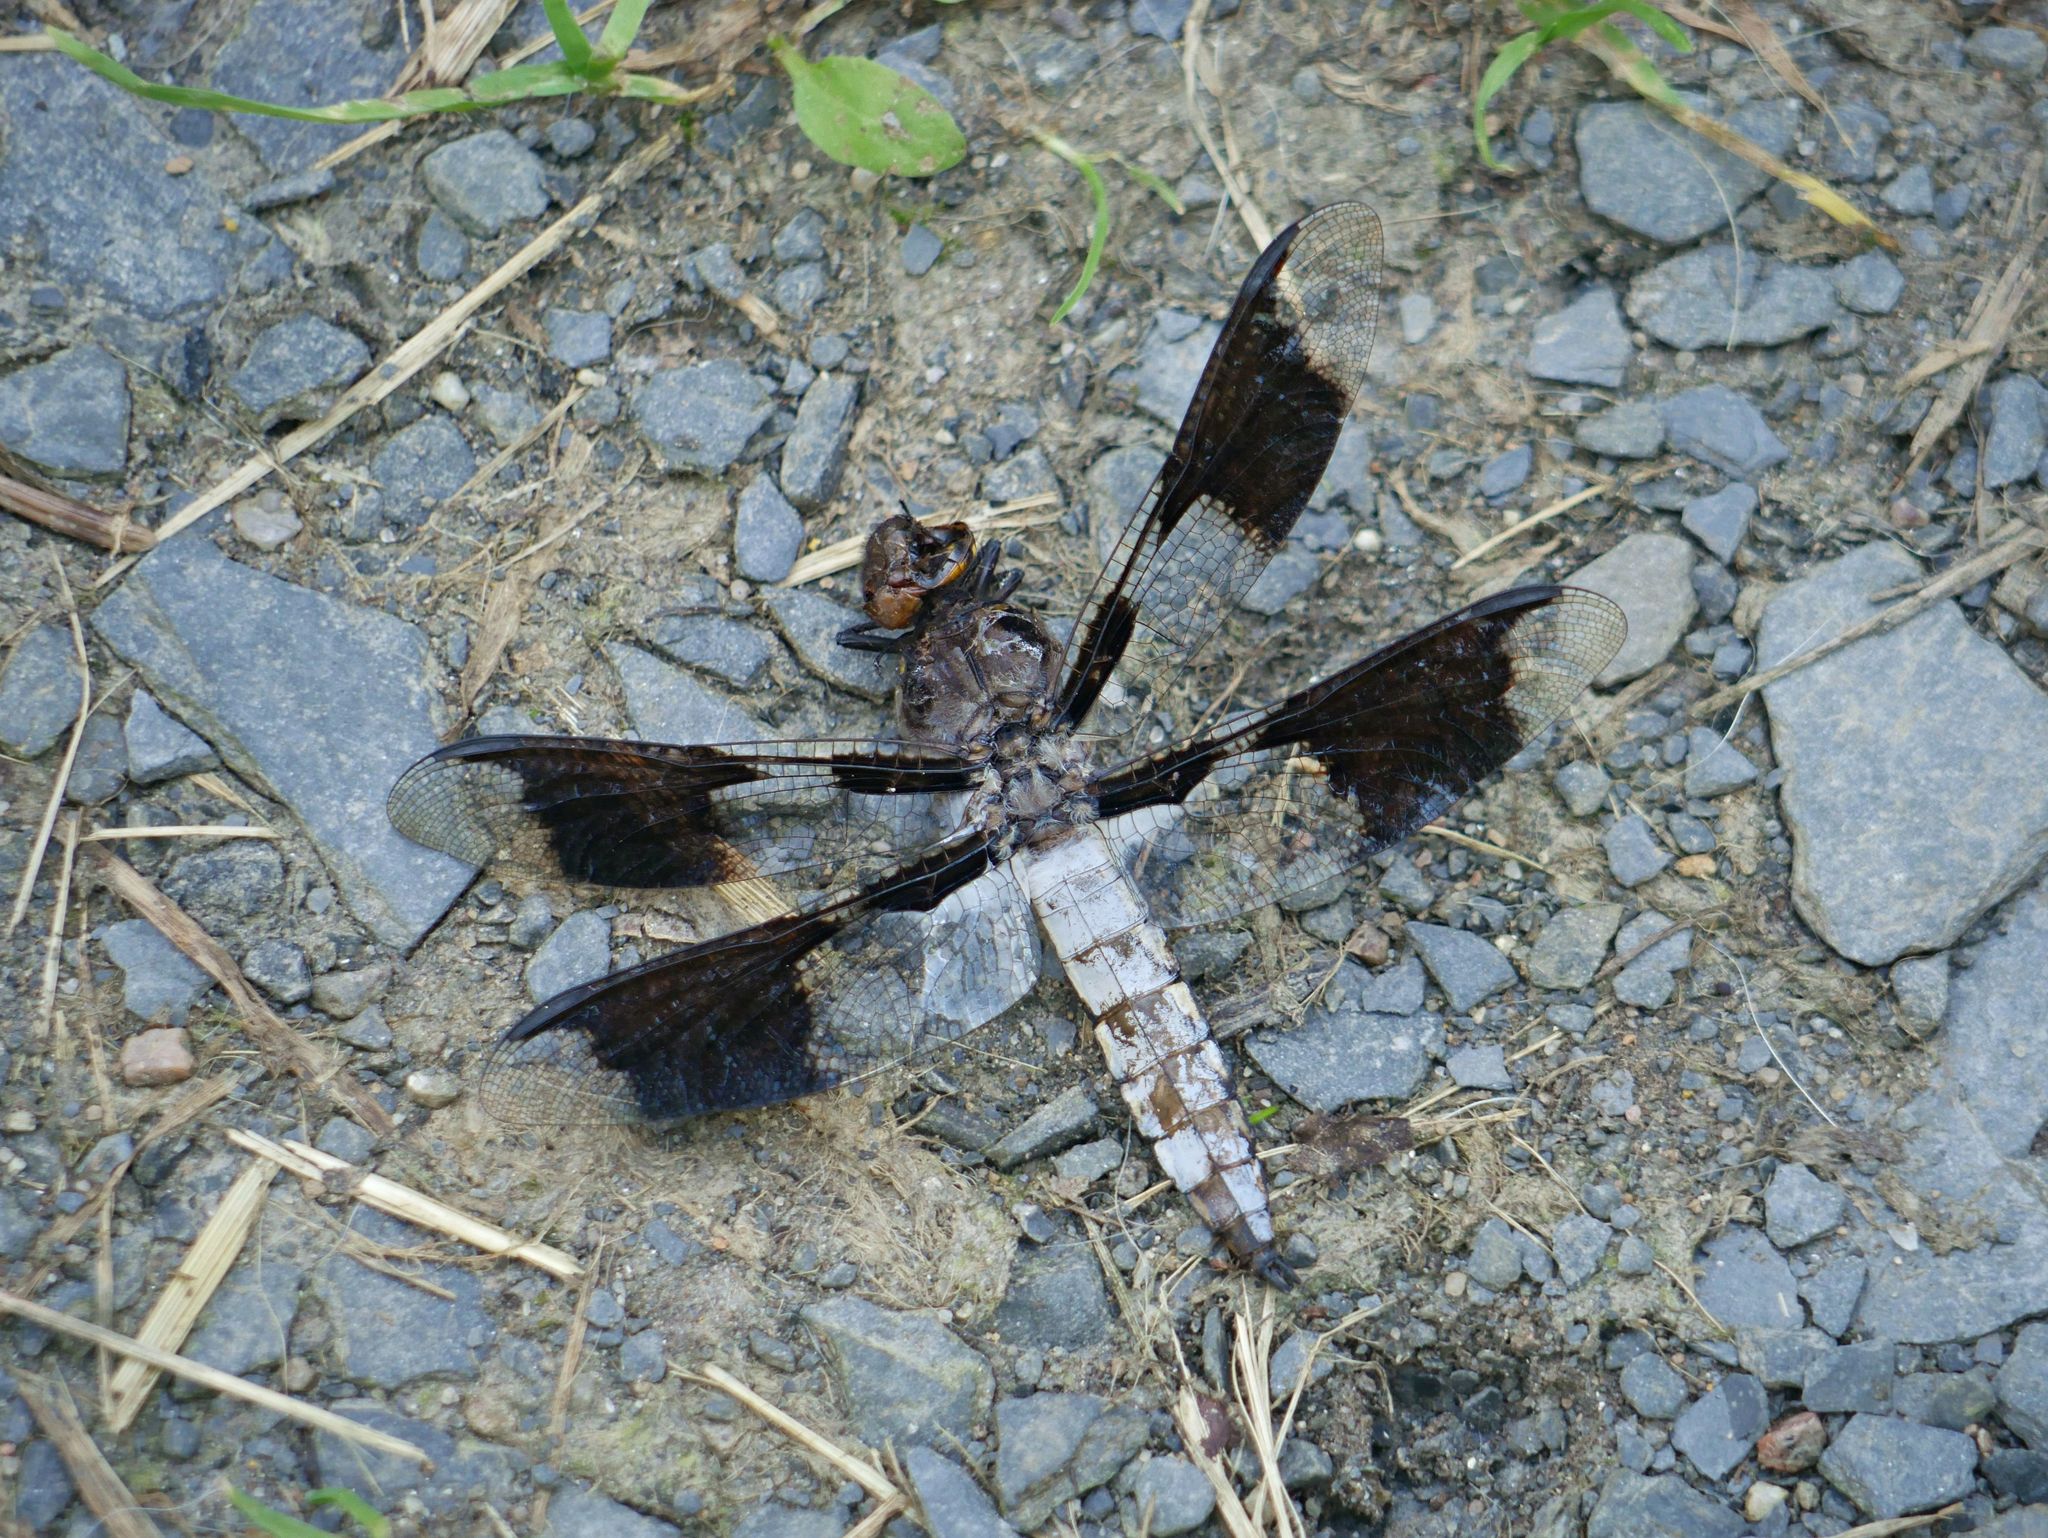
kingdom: Animalia
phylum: Arthropoda
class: Insecta
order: Odonata
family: Libellulidae
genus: Plathemis
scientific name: Plathemis lydia
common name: Common whitetail
